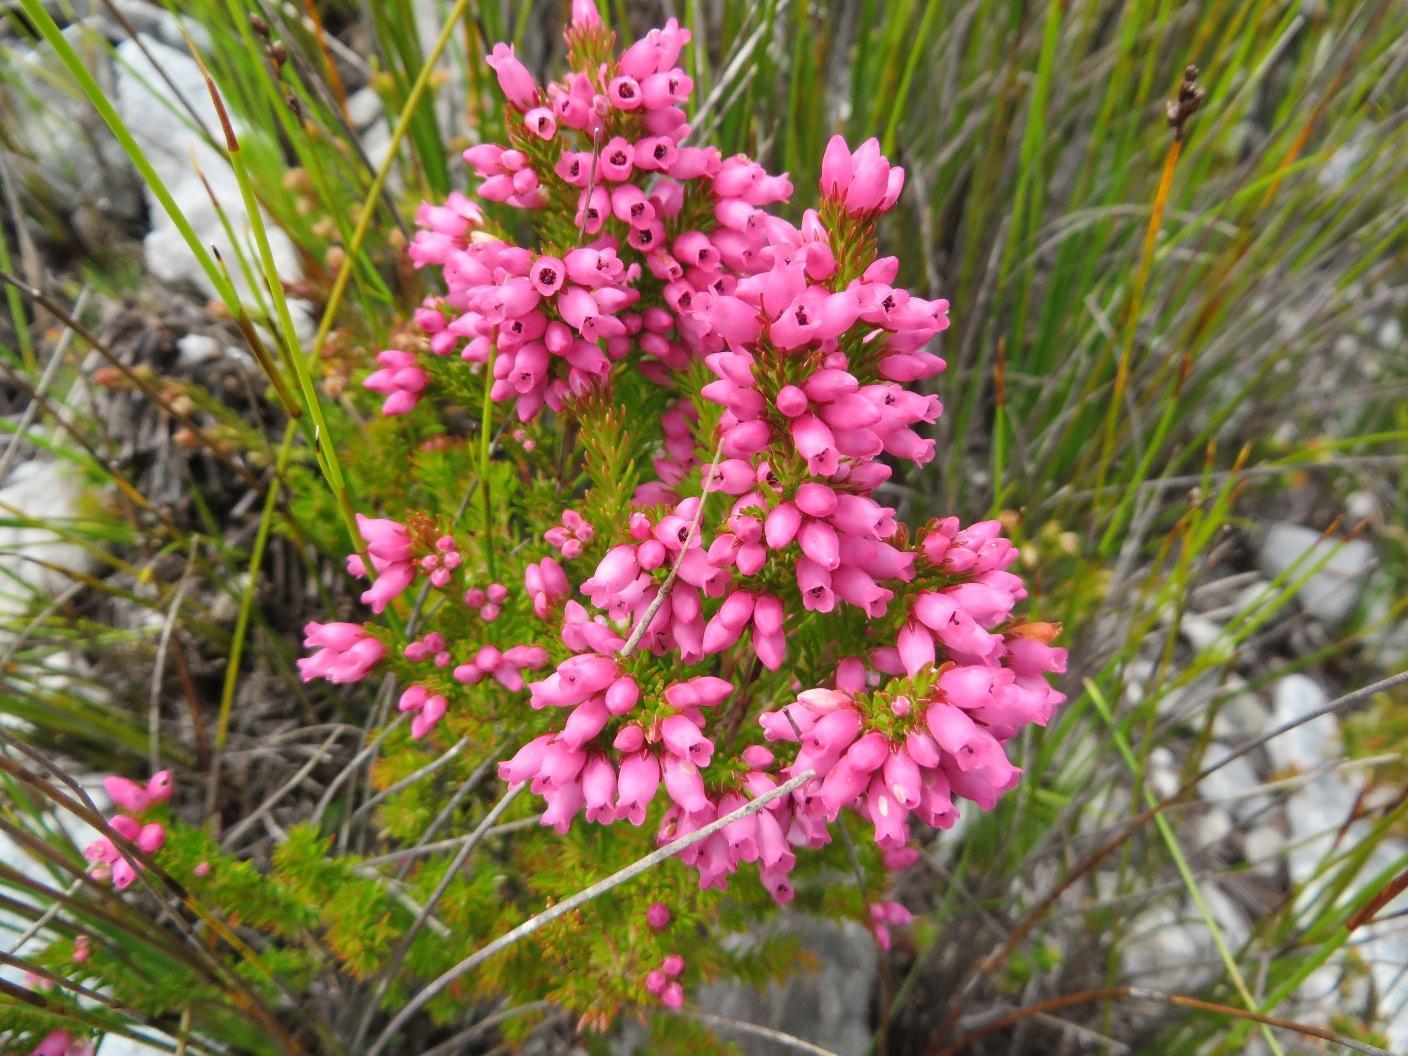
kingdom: Plantae
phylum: Tracheophyta
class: Magnoliopsida
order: Ericales
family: Ericaceae
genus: Erica
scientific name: Erica tenella
